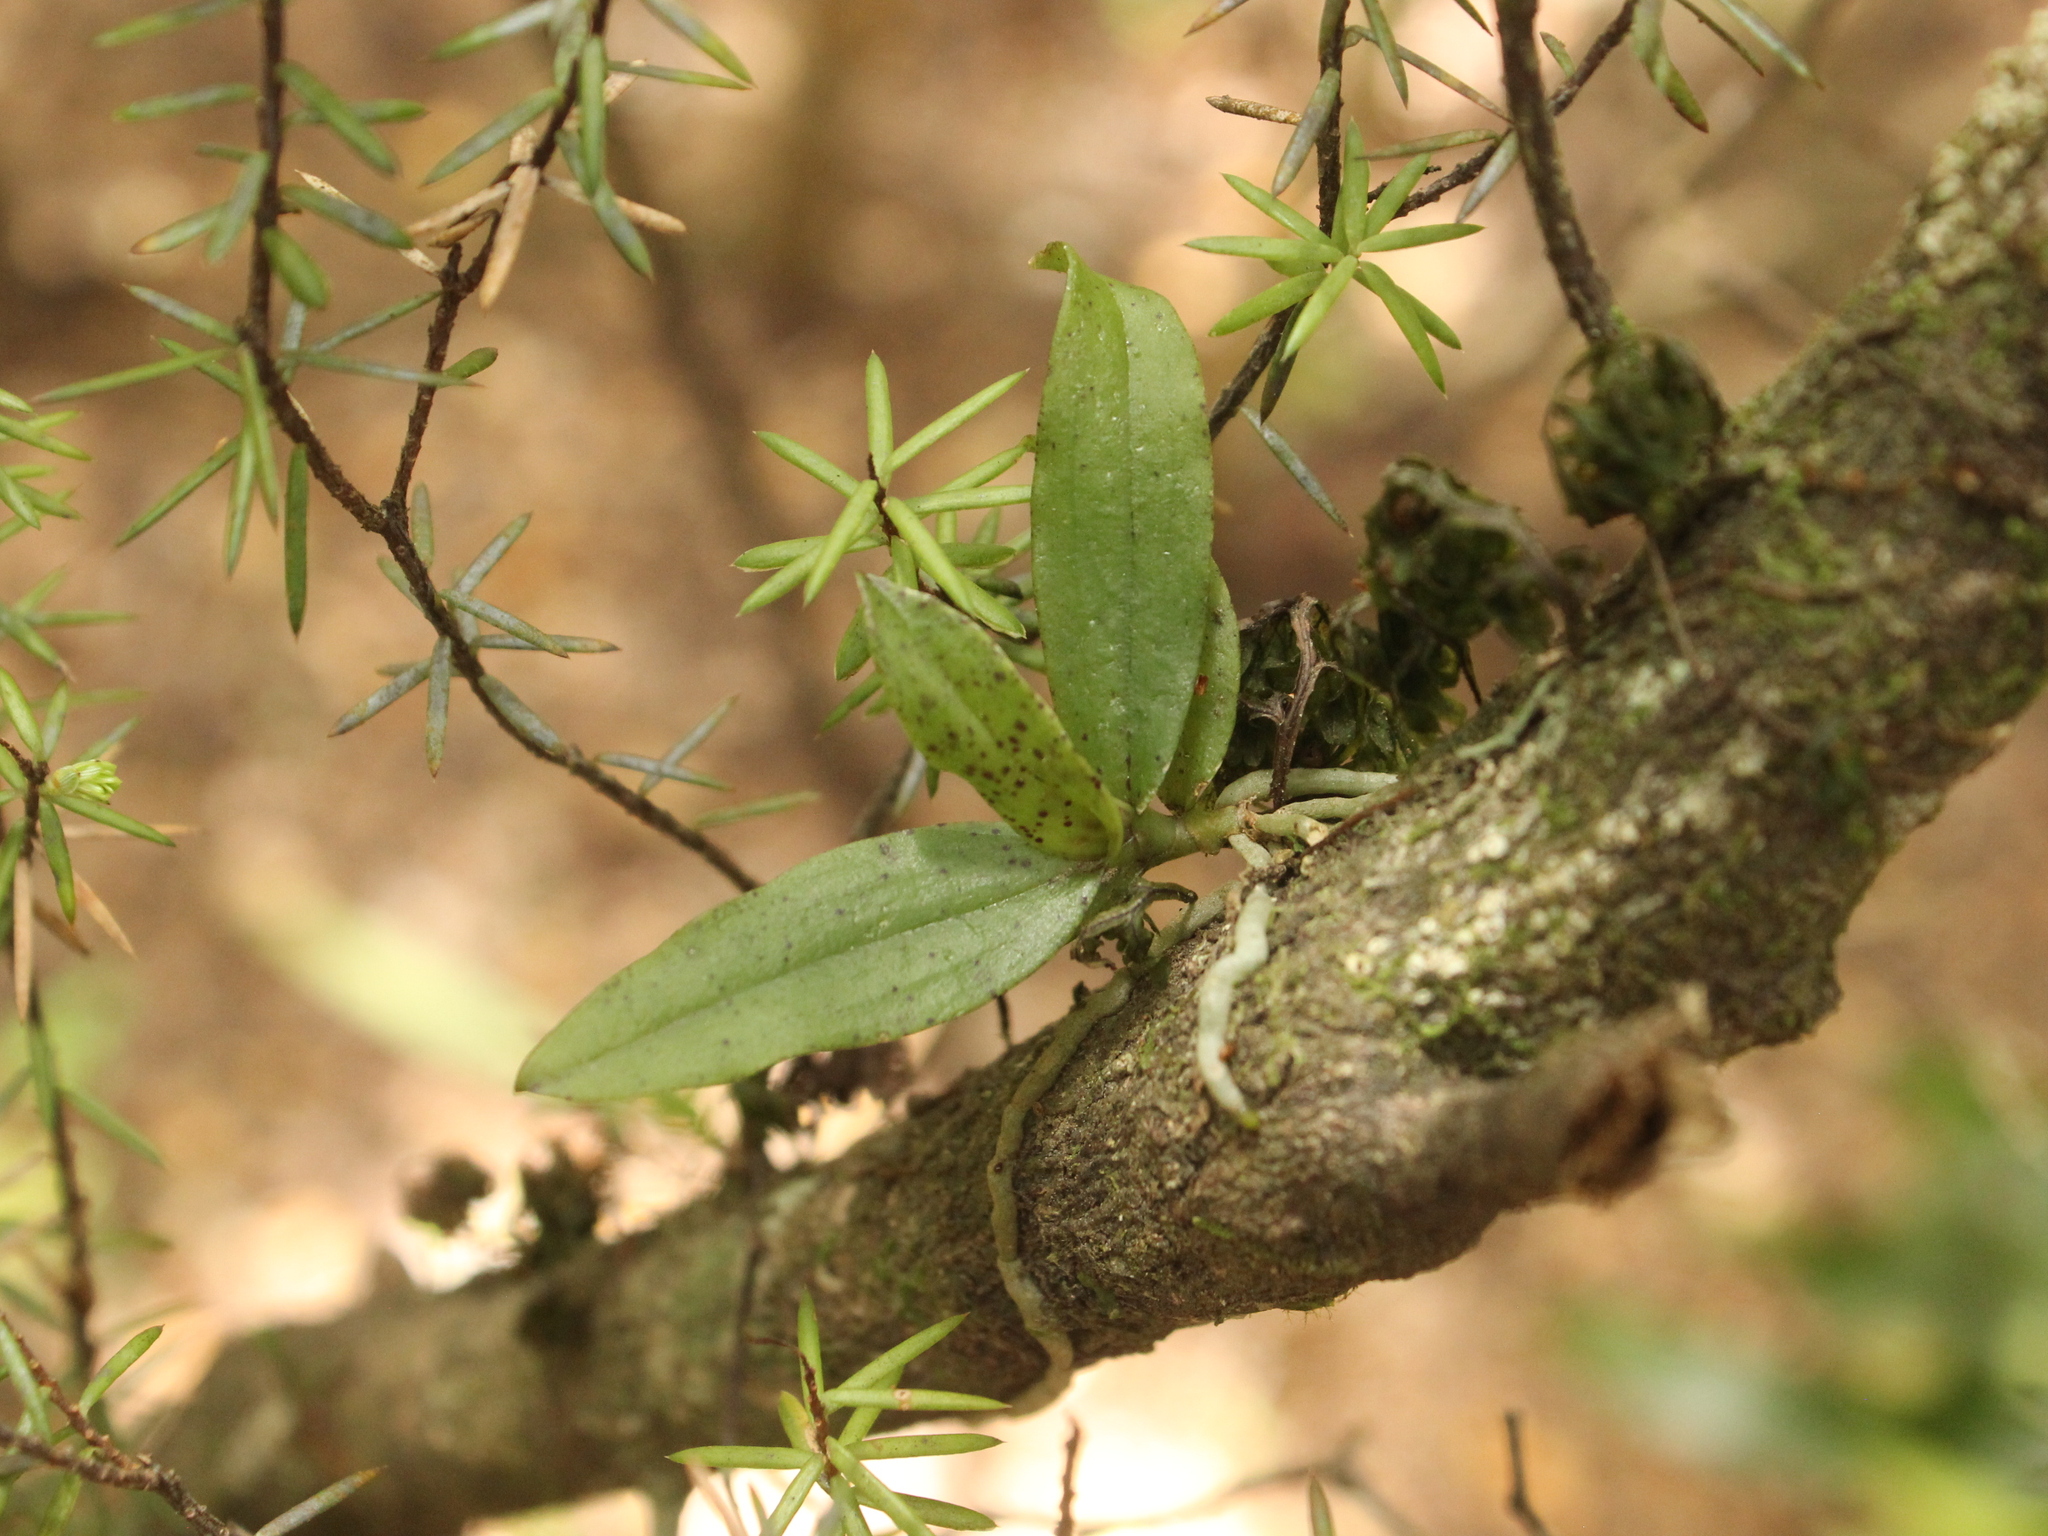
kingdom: Plantae
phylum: Tracheophyta
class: Liliopsida
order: Asparagales
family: Orchidaceae
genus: Drymoanthus
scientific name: Drymoanthus flavus
